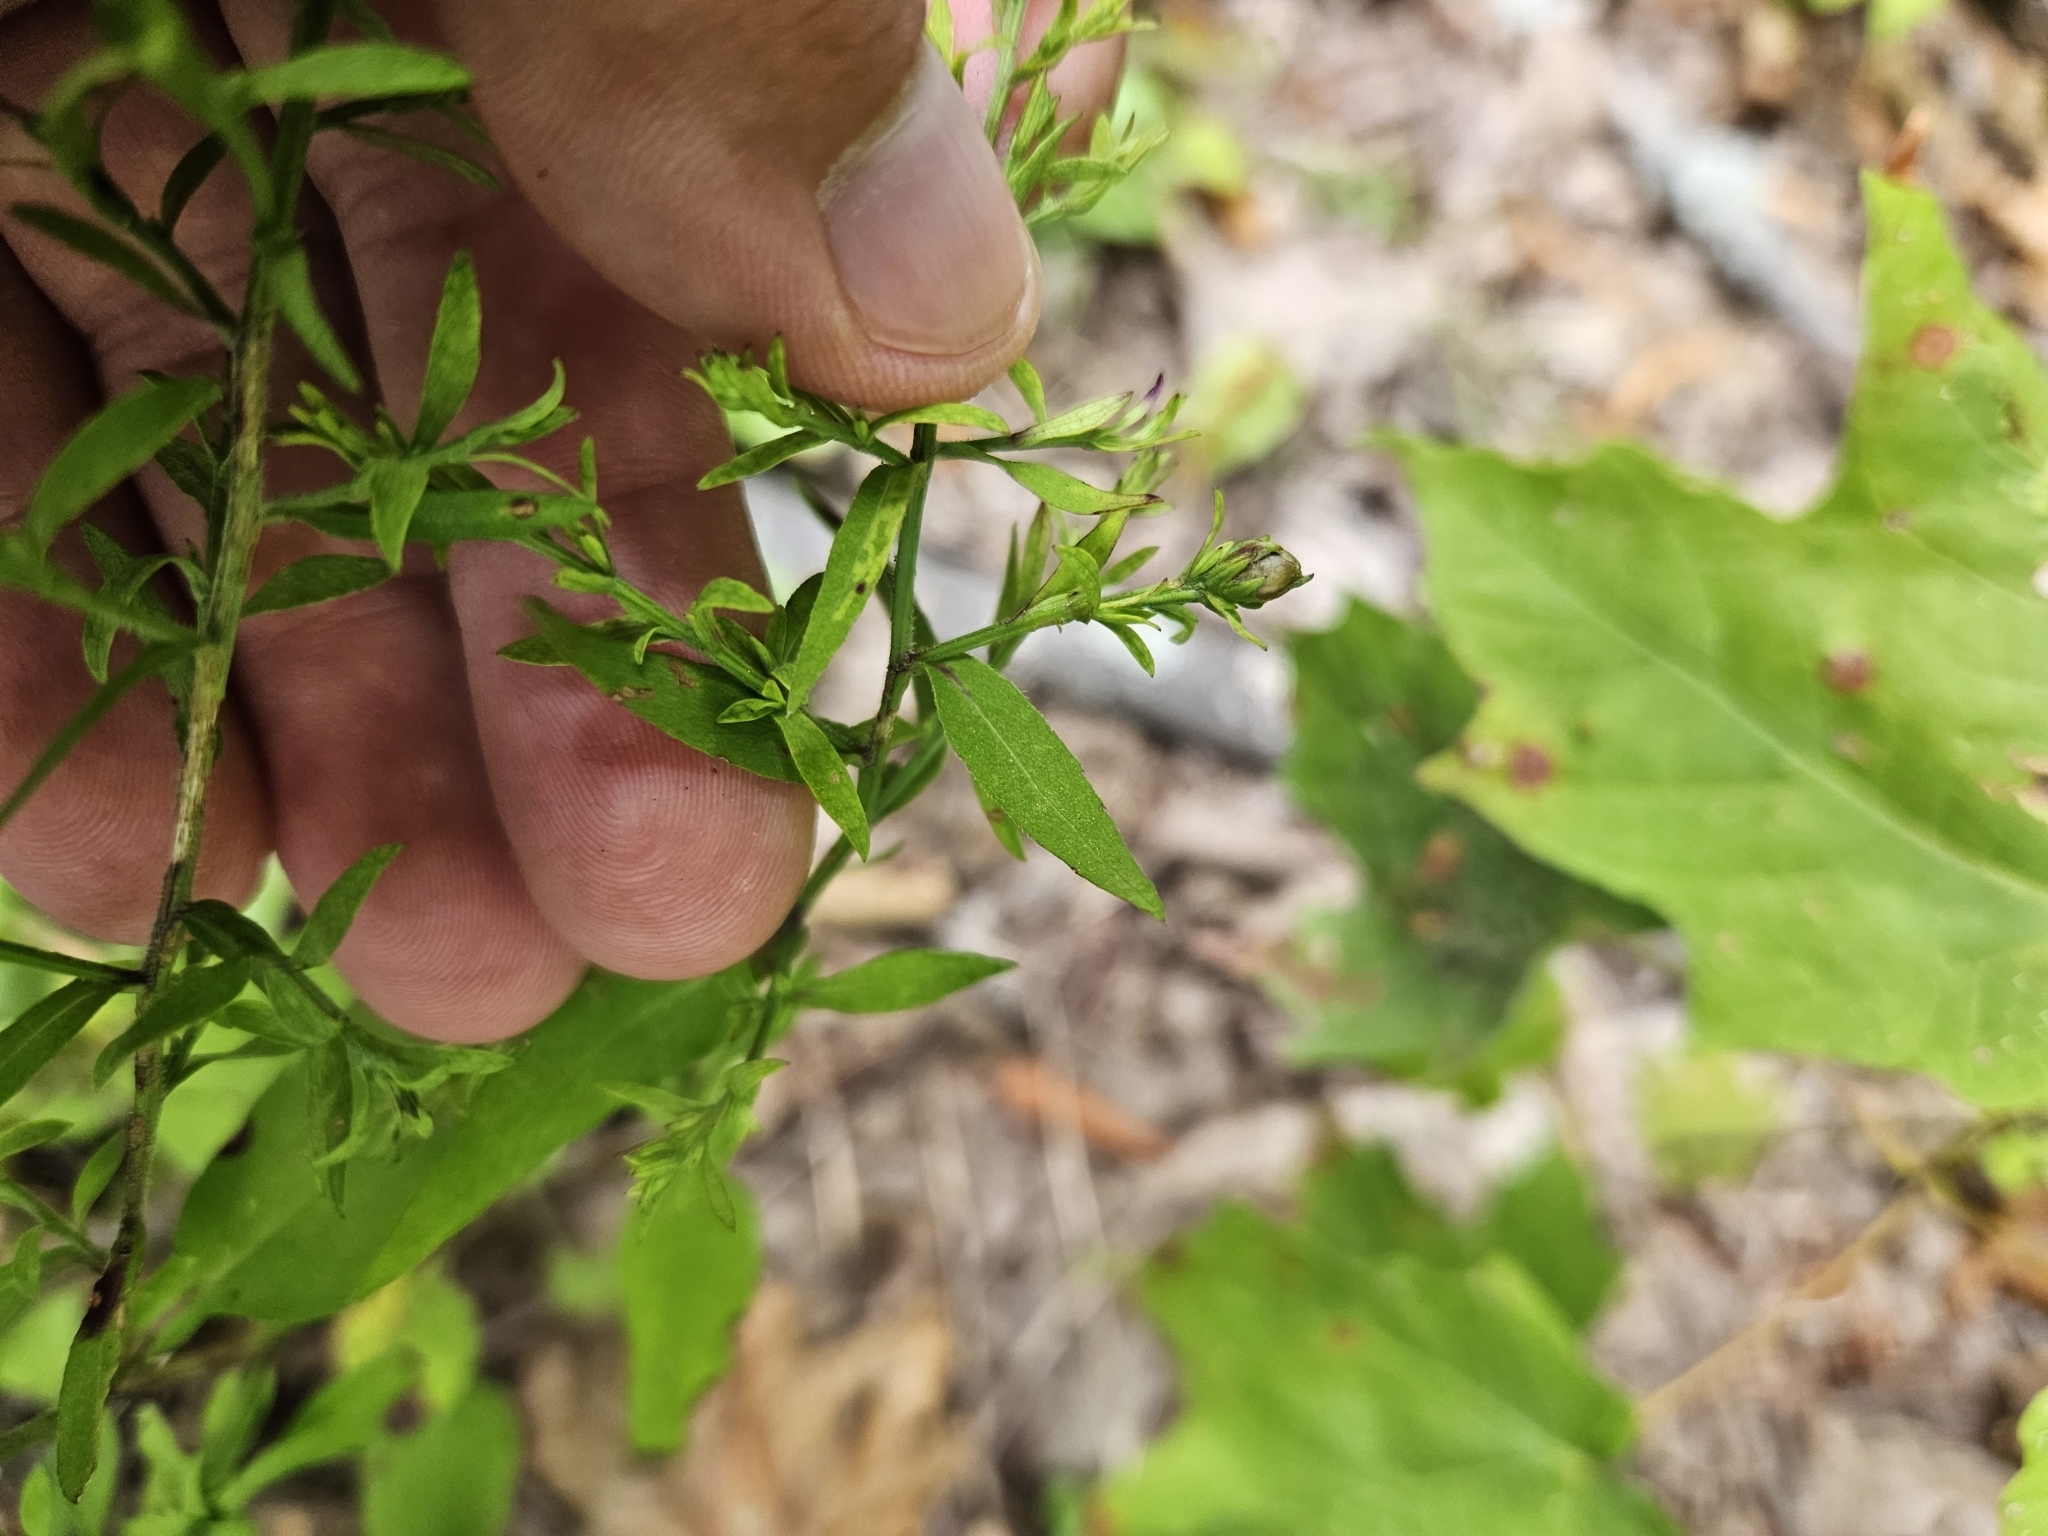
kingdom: Animalia
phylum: Arthropoda
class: Insecta
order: Diptera
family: Cecidomyiidae
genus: Asphondylia
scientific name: Asphondylia imbricata
